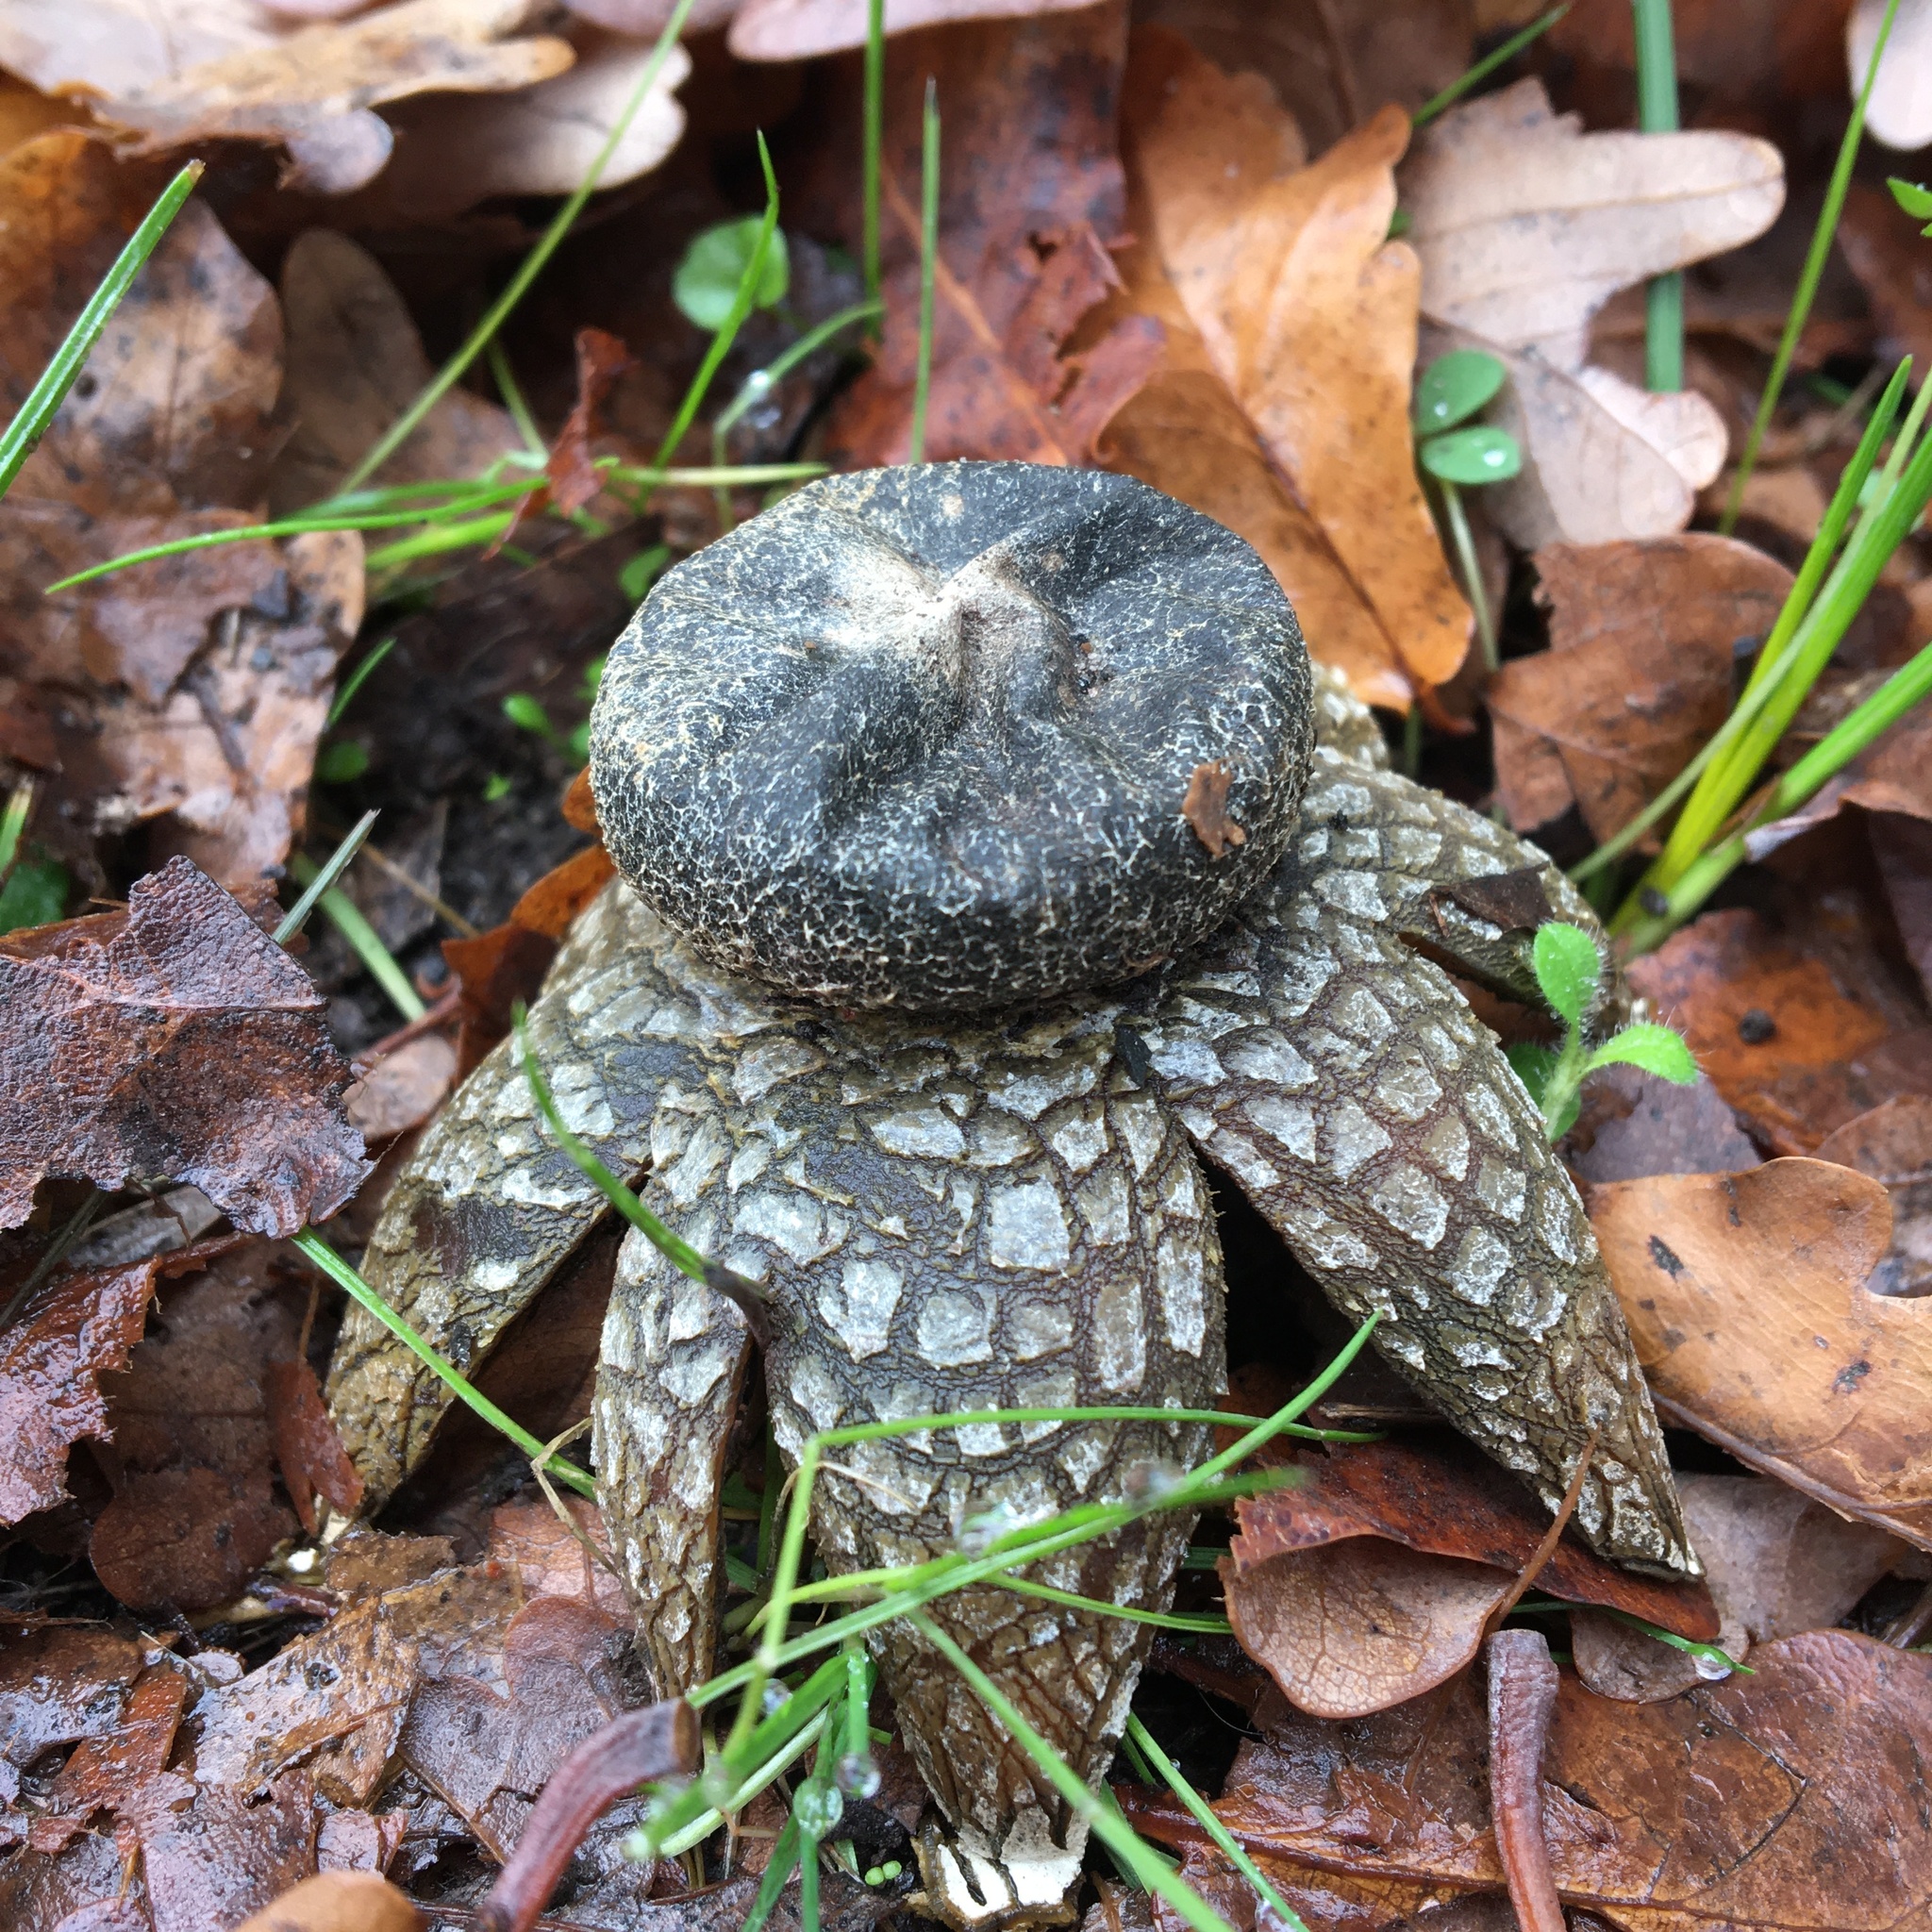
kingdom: Fungi
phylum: Basidiomycota
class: Agaricomycetes
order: Boletales
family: Diplocystidiaceae
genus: Astraeus
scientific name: Astraeus hygrometricus
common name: Barometer earthstar
